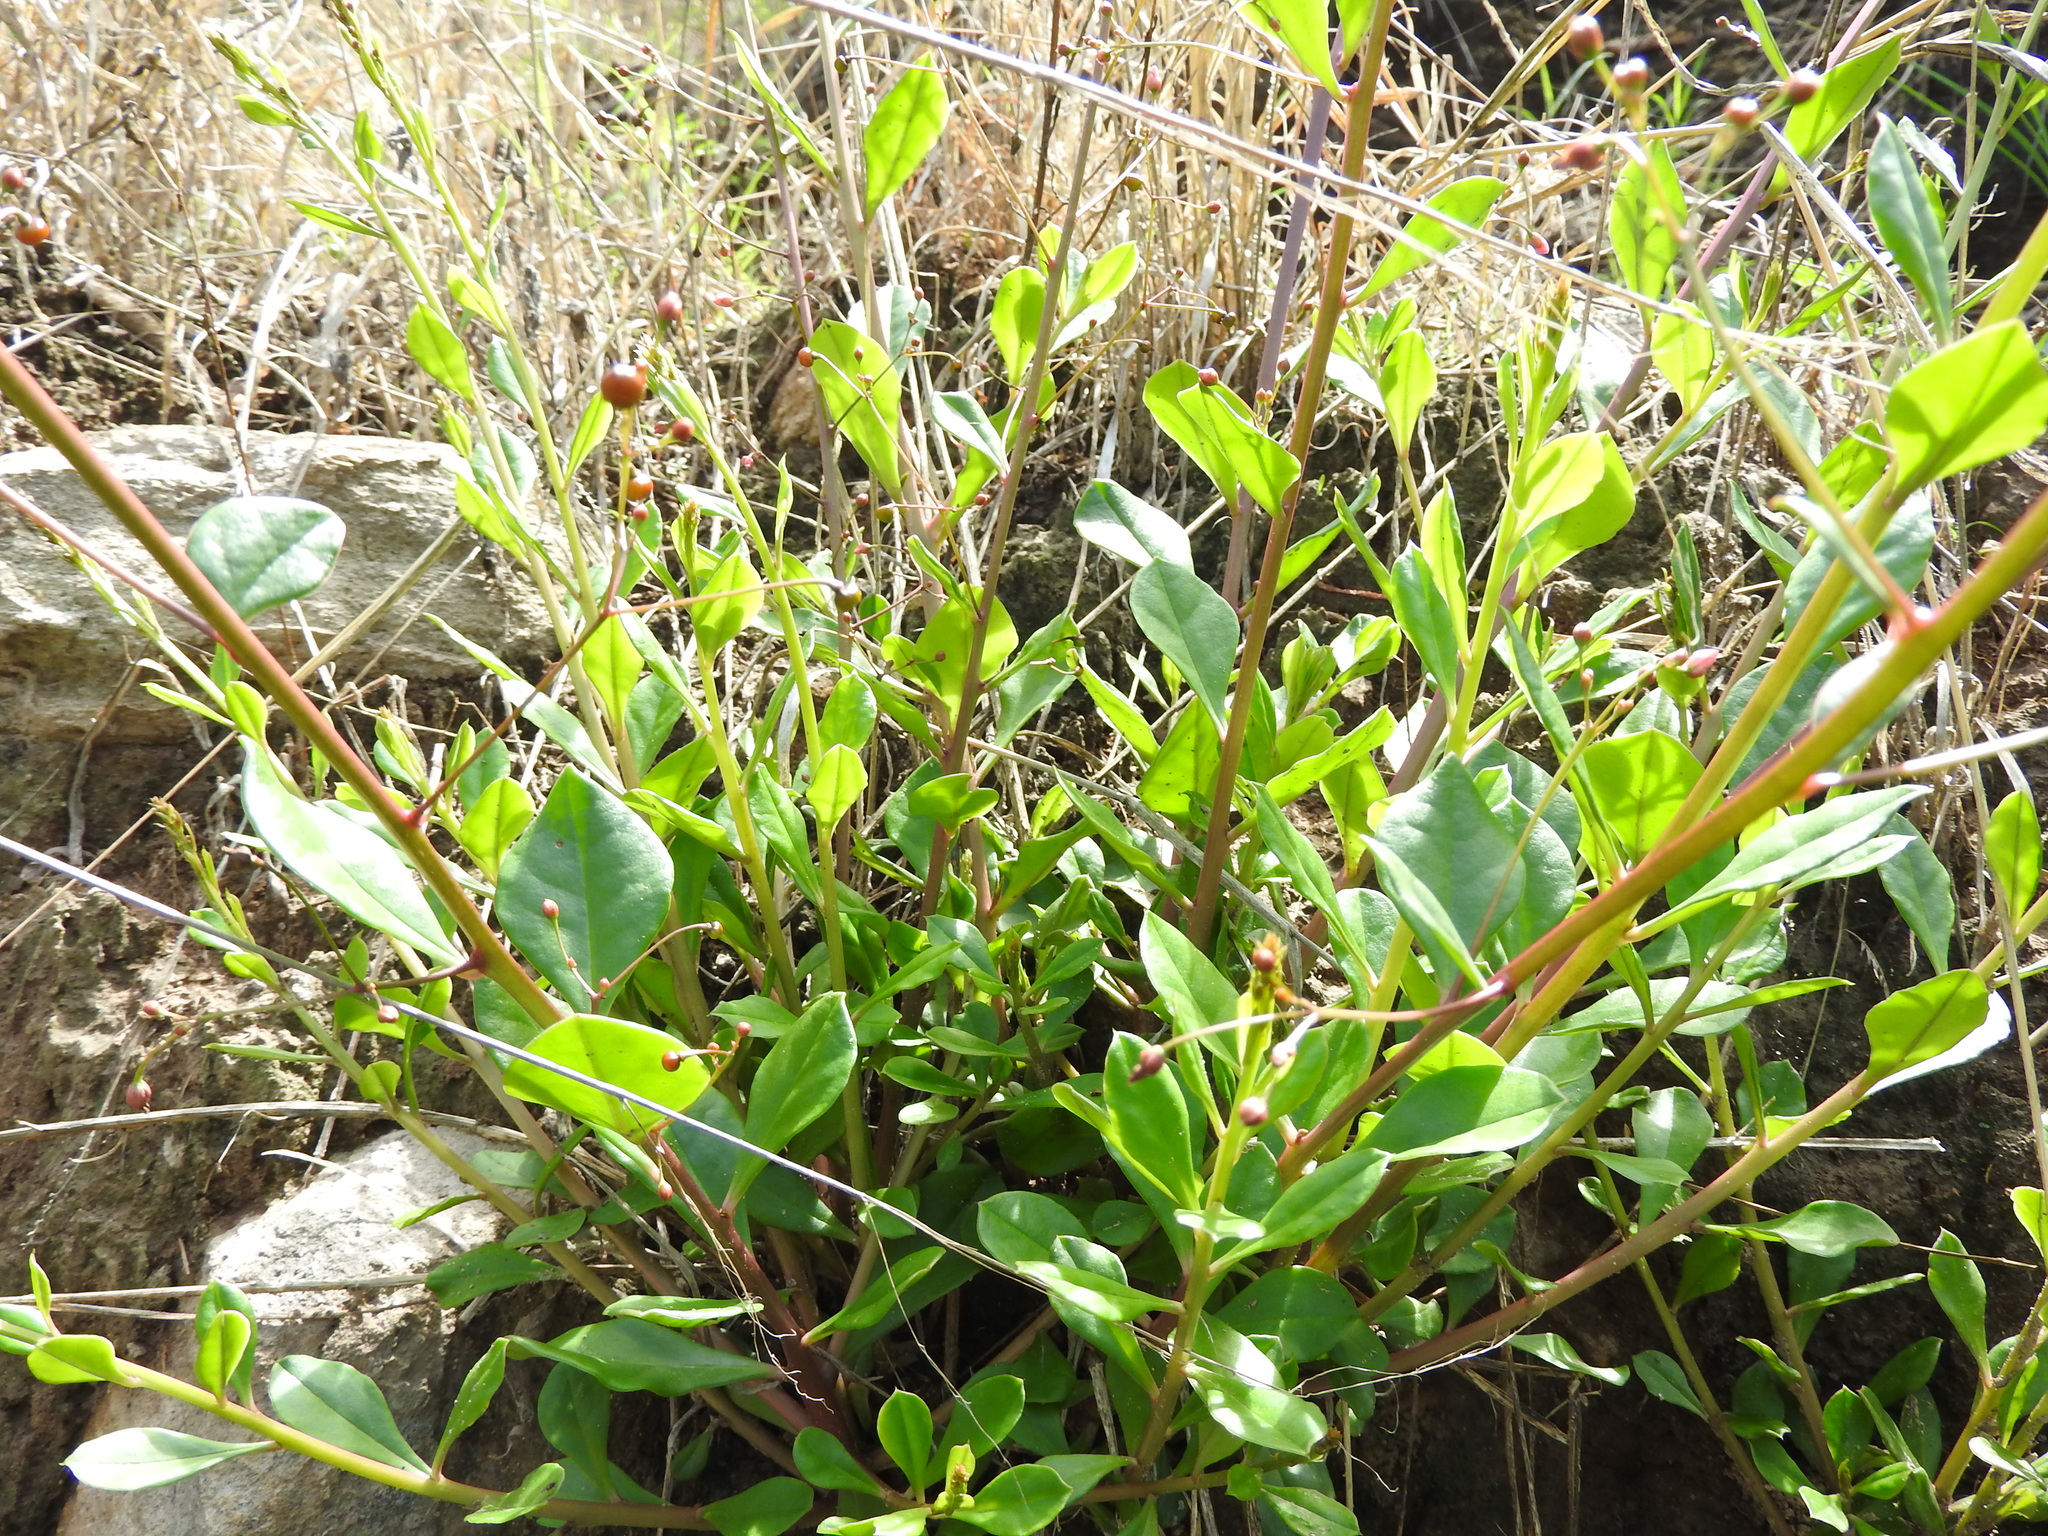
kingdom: Plantae
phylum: Tracheophyta
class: Magnoliopsida
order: Caryophyllales
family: Talinaceae
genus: Talinum
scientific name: Talinum paniculatum
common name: Jewels of opar
